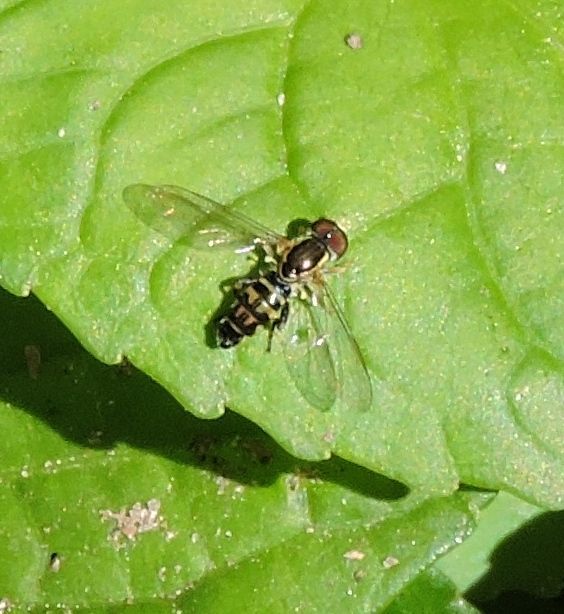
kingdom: Animalia
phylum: Arthropoda
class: Insecta
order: Diptera
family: Syrphidae
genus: Toxomerus
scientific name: Toxomerus geminatus
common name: Eastern calligrapher
